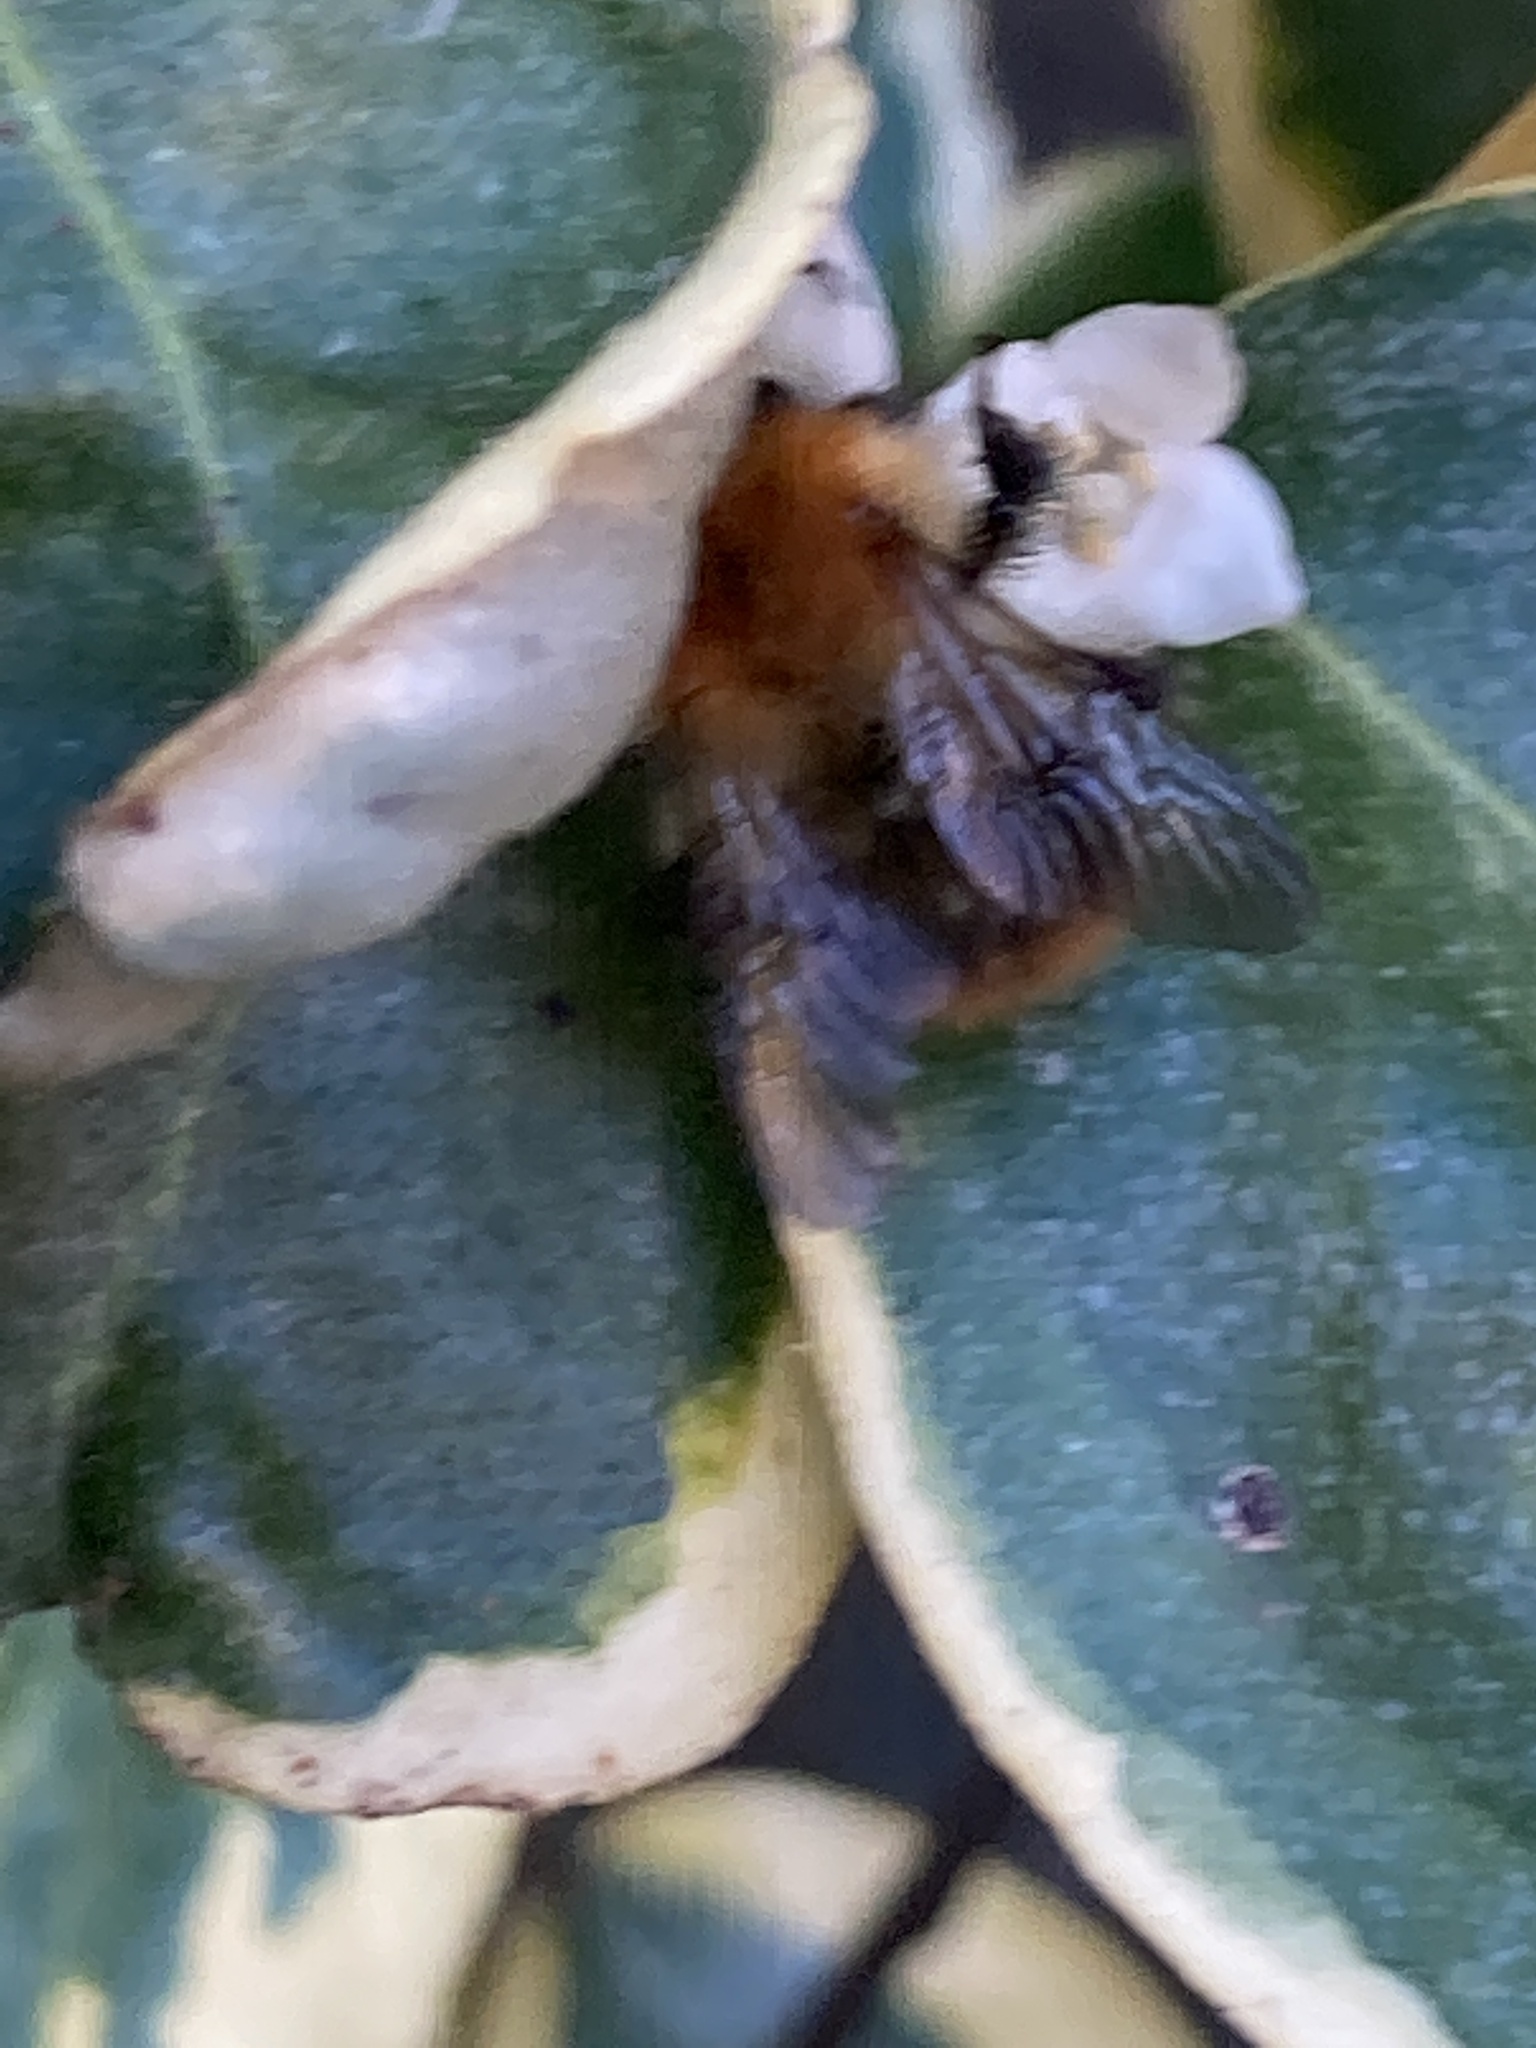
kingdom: Animalia
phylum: Arthropoda
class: Insecta
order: Hymenoptera
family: Apidae
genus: Bombus
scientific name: Bombus pascuorum
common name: Common carder bee
